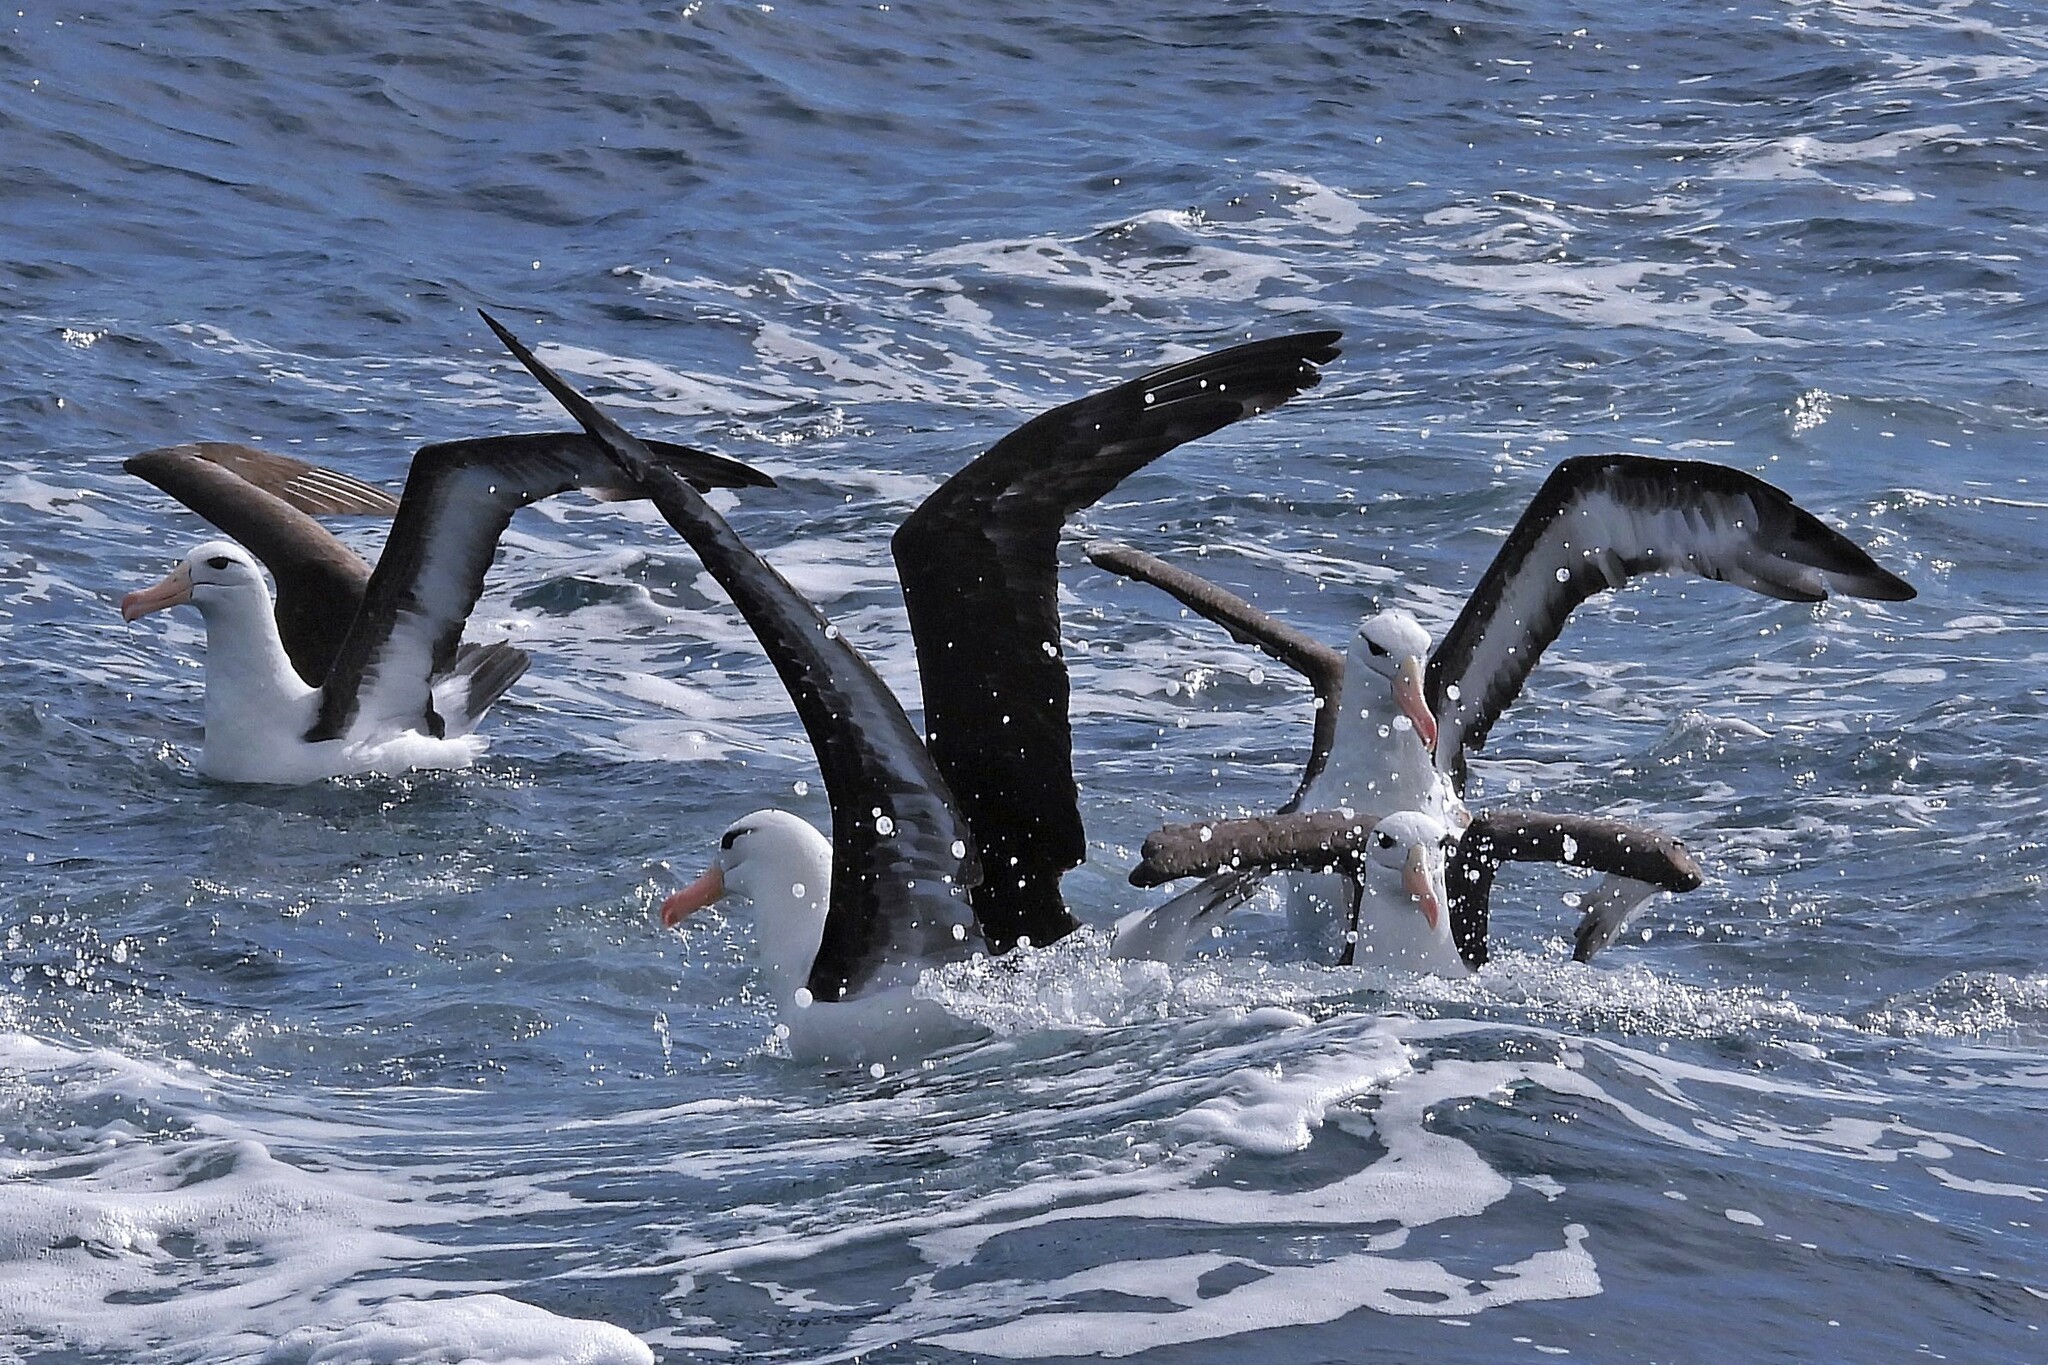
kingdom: Animalia
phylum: Chordata
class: Aves
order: Procellariiformes
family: Diomedeidae
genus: Thalassarche
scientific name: Thalassarche melanophris
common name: Black-browed albatross
